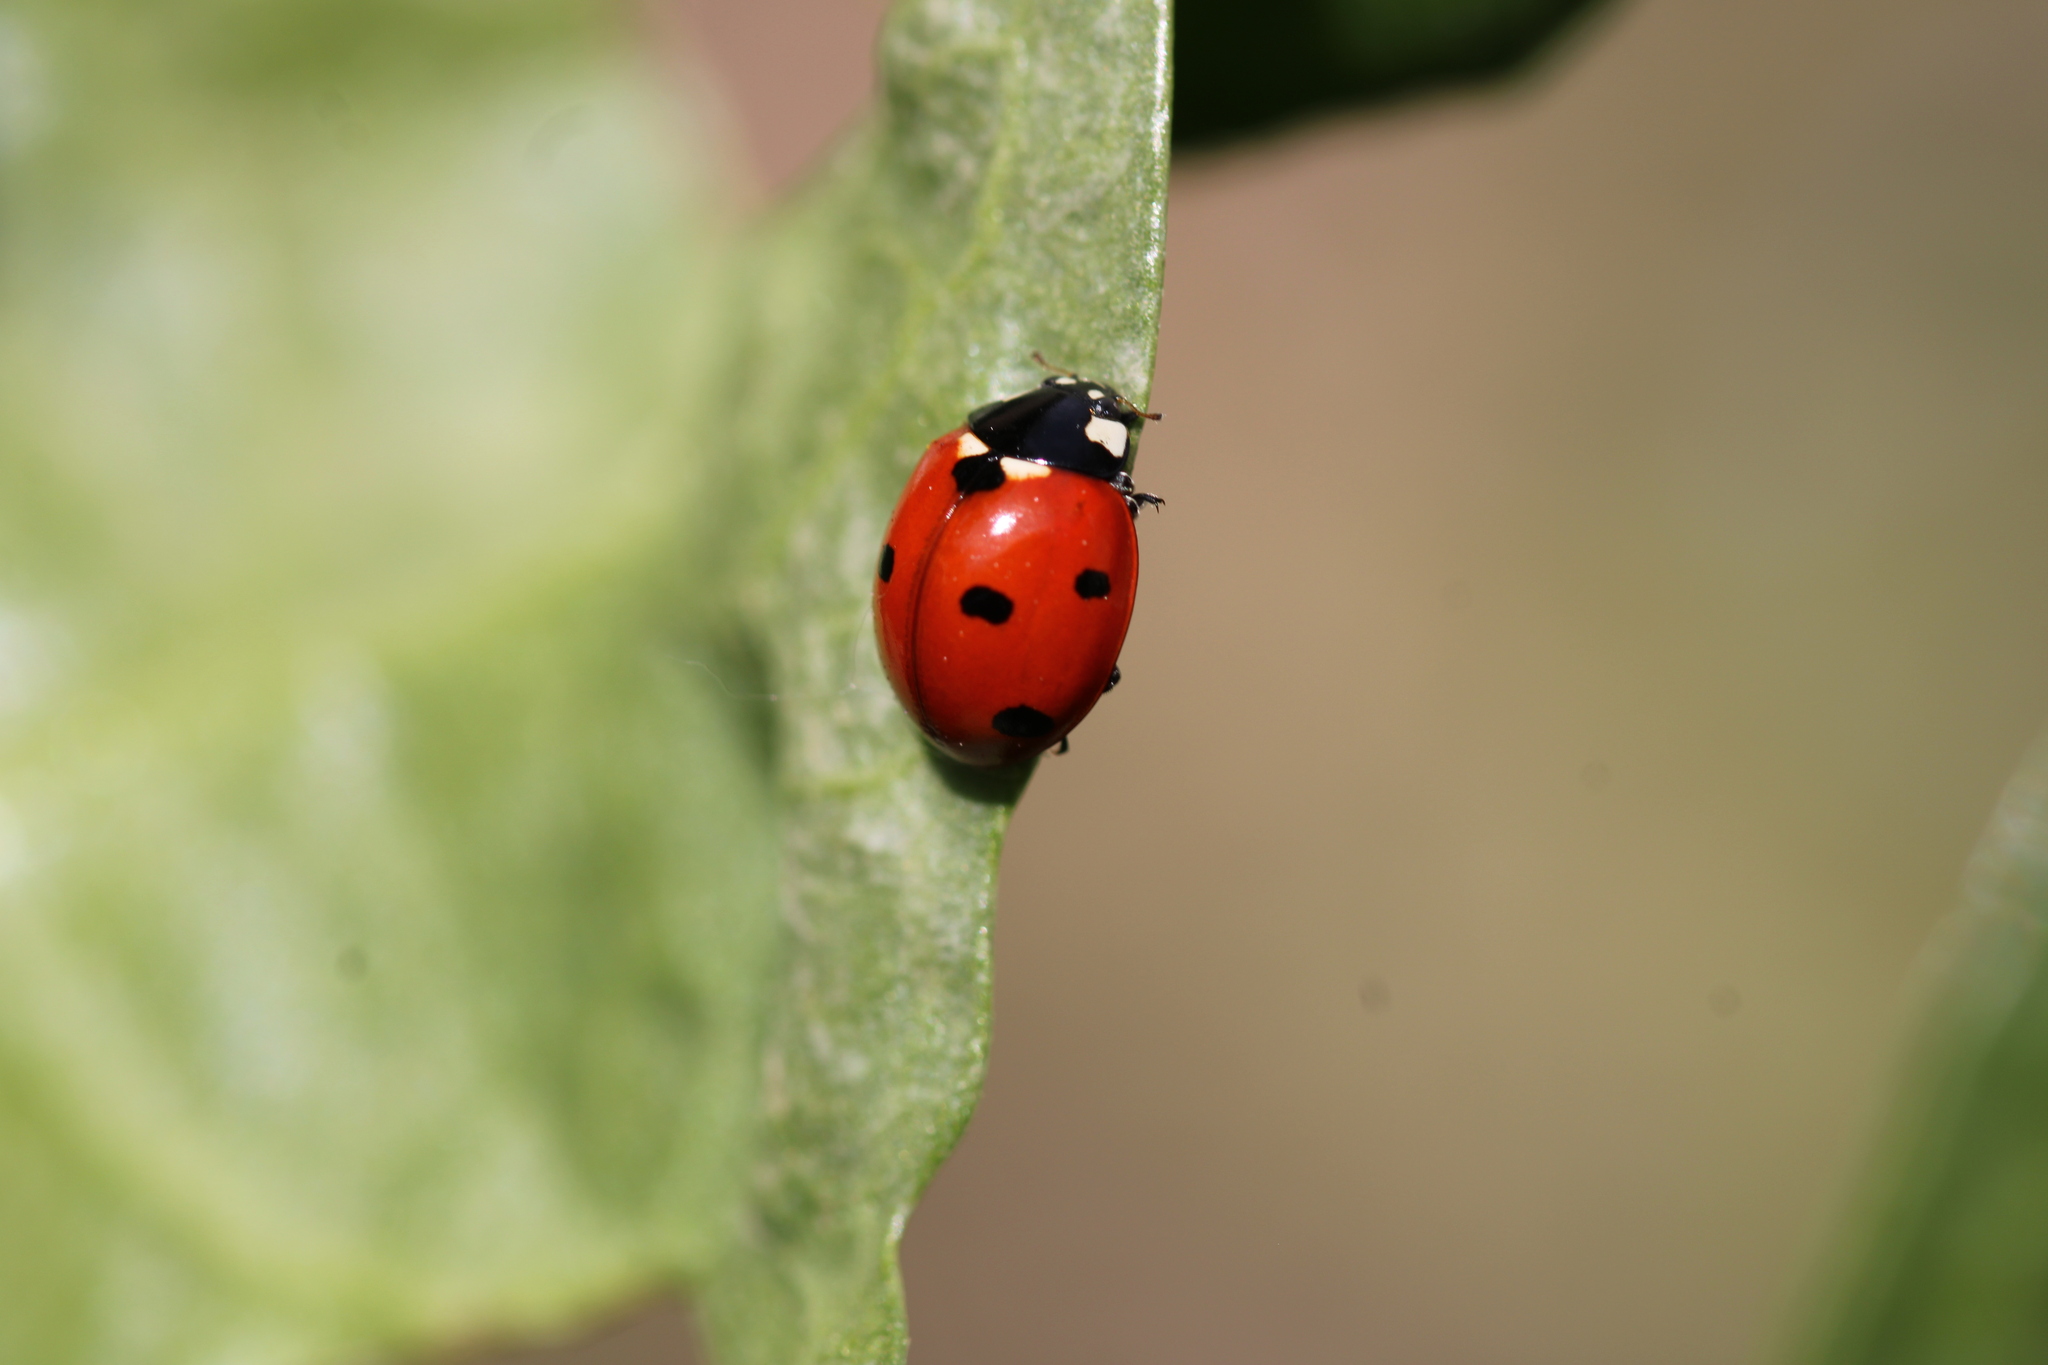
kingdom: Animalia
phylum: Arthropoda
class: Insecta
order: Coleoptera
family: Coccinellidae
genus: Coccinella
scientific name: Coccinella septempunctata
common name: Sevenspotted lady beetle
